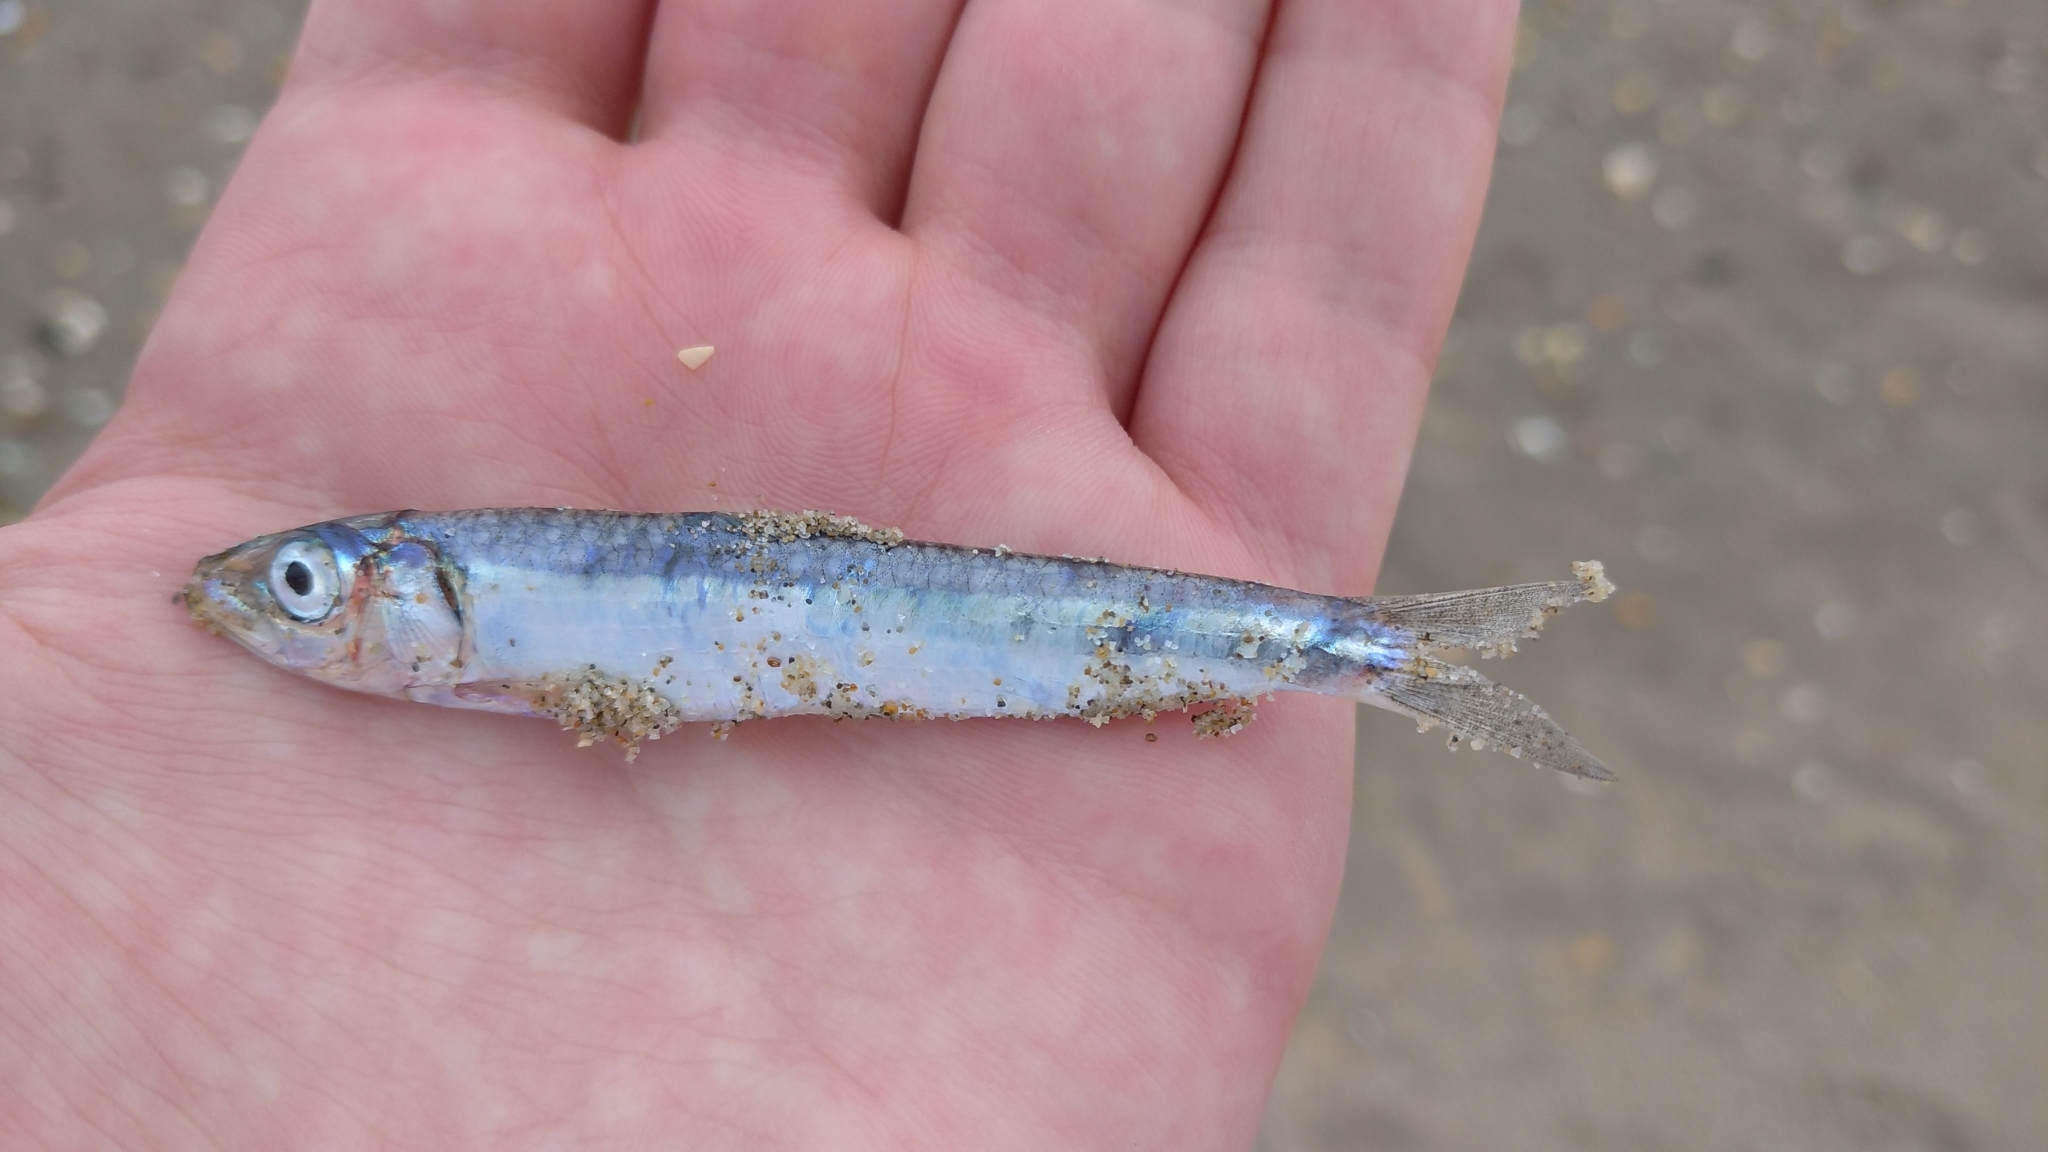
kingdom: Animalia
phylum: Chordata
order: Clupeiformes
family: Clupeidae
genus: Sardina
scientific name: Sardina pilchardus
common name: Pilchard
